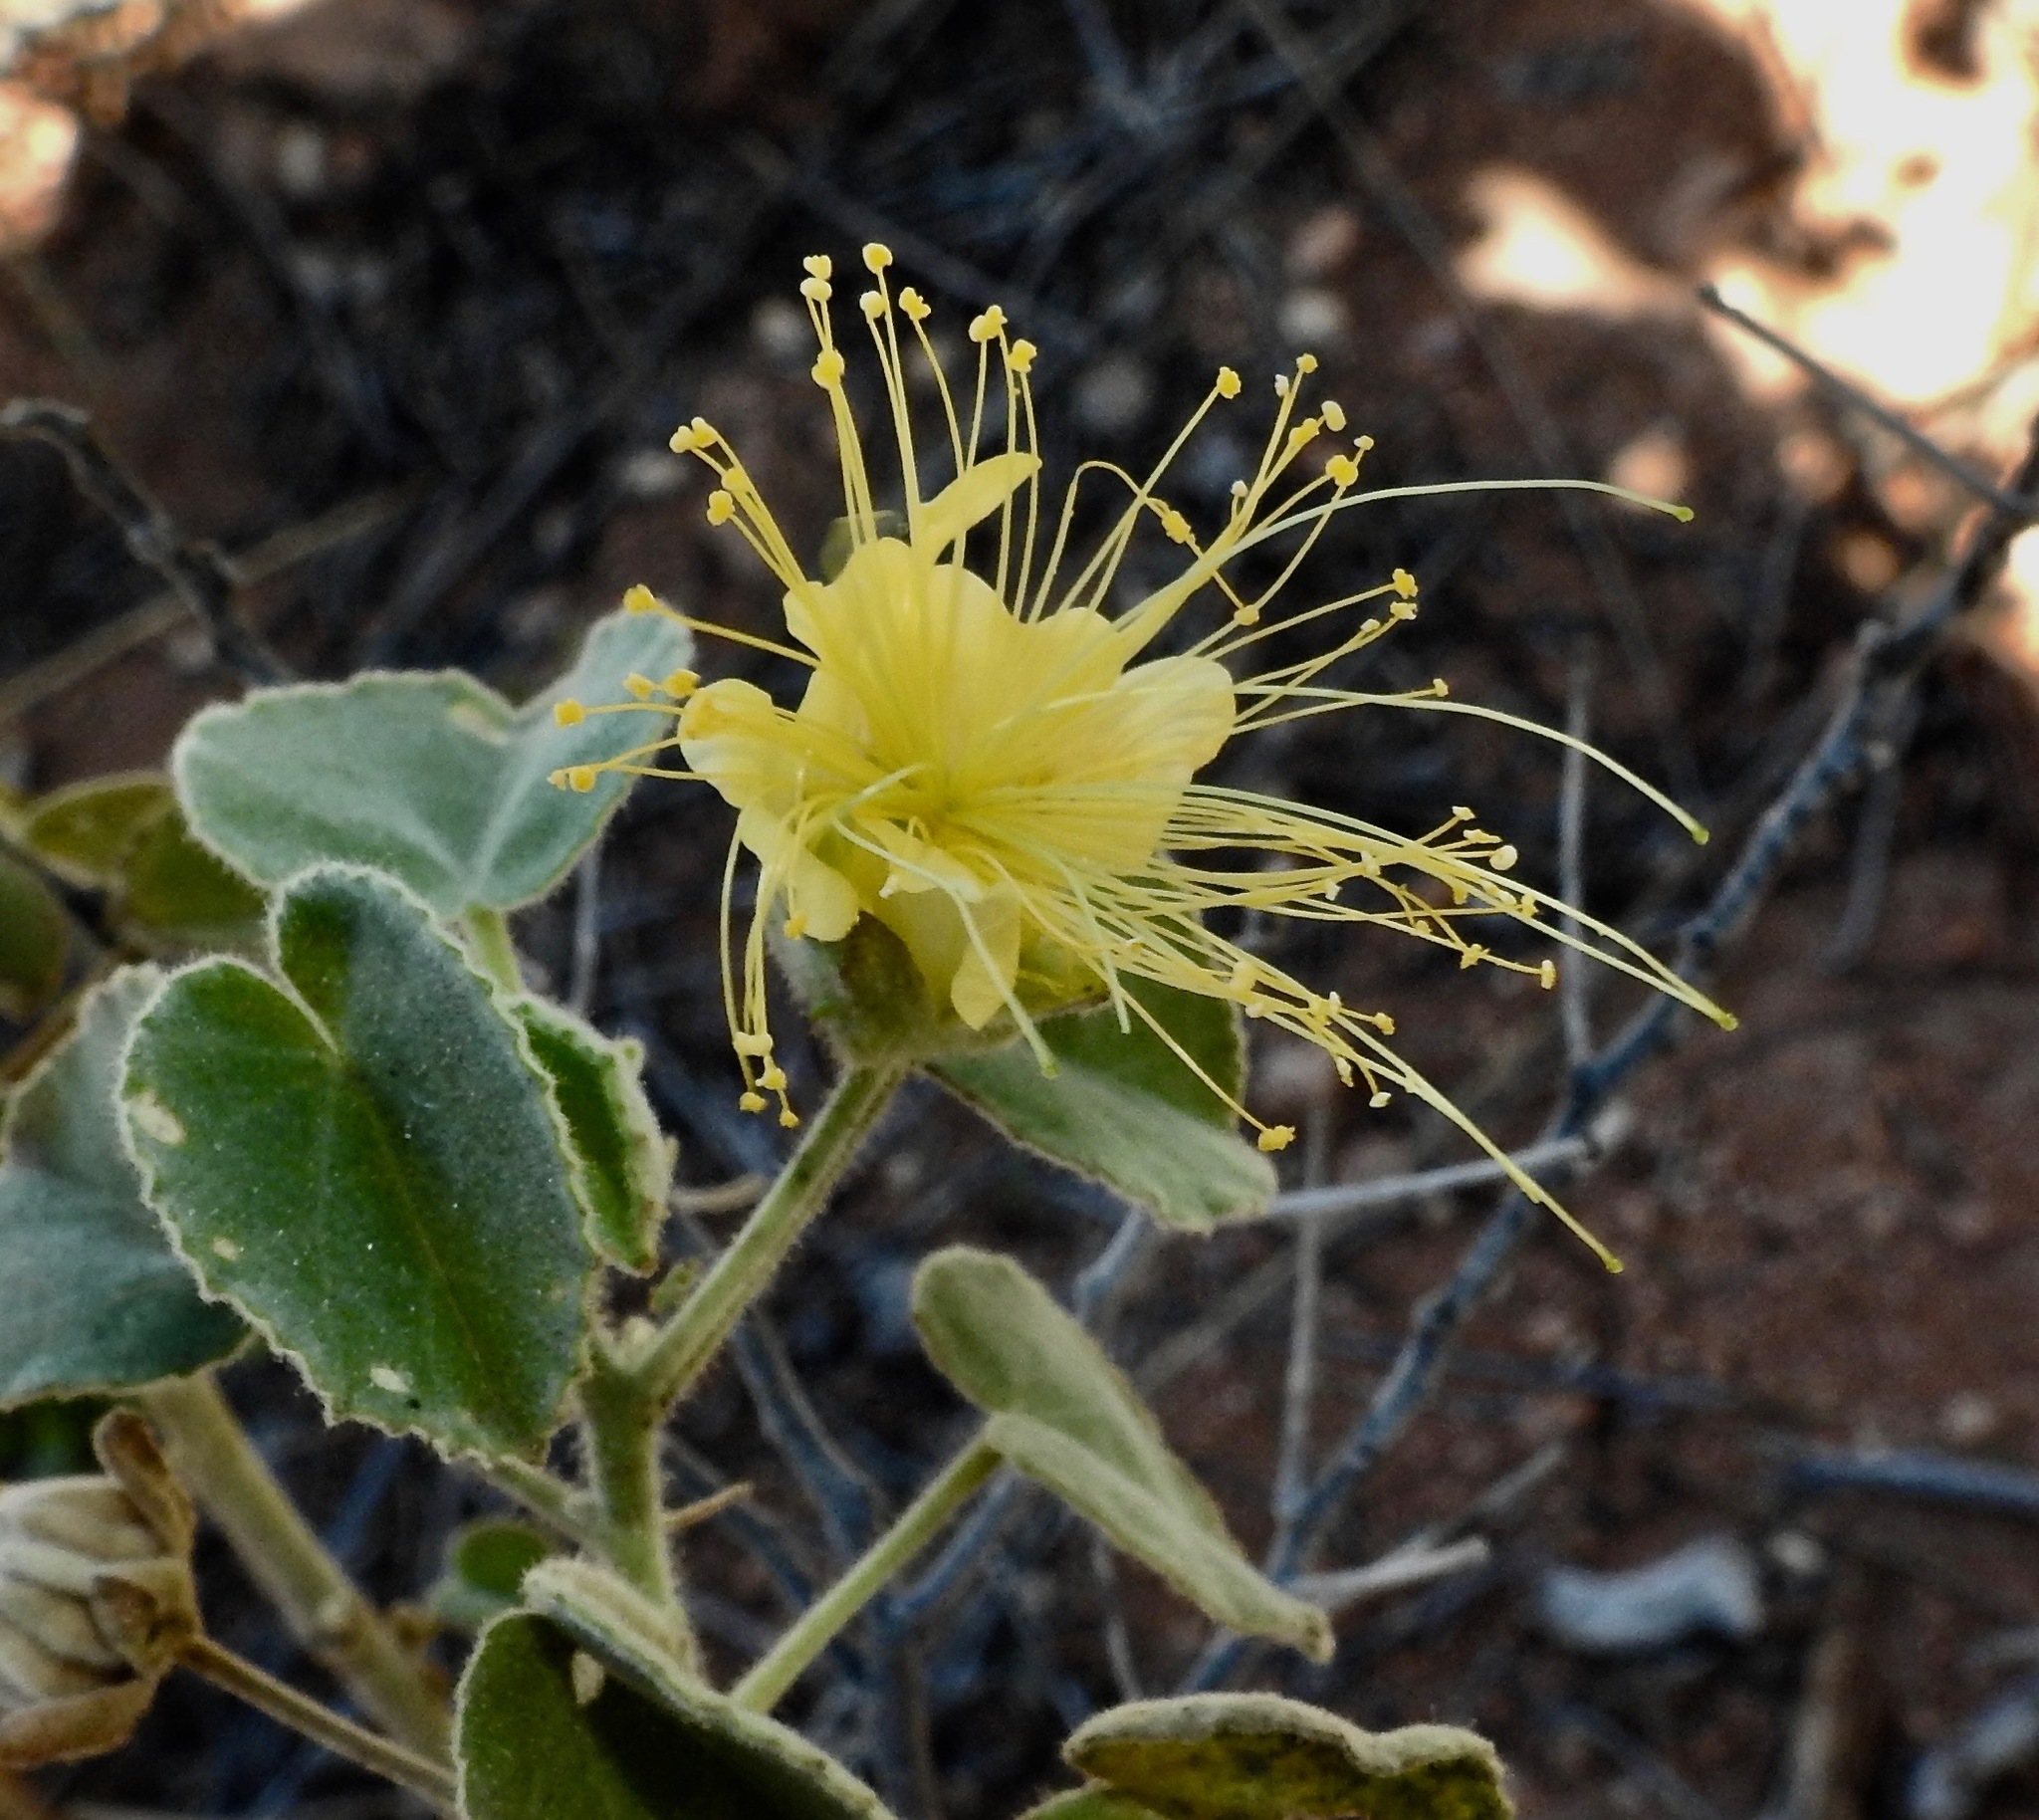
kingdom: Plantae
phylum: Tracheophyta
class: Magnoliopsida
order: Malvales
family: Malvaceae
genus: Abutilon
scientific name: Abutilon indicum
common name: Indian abutilon
